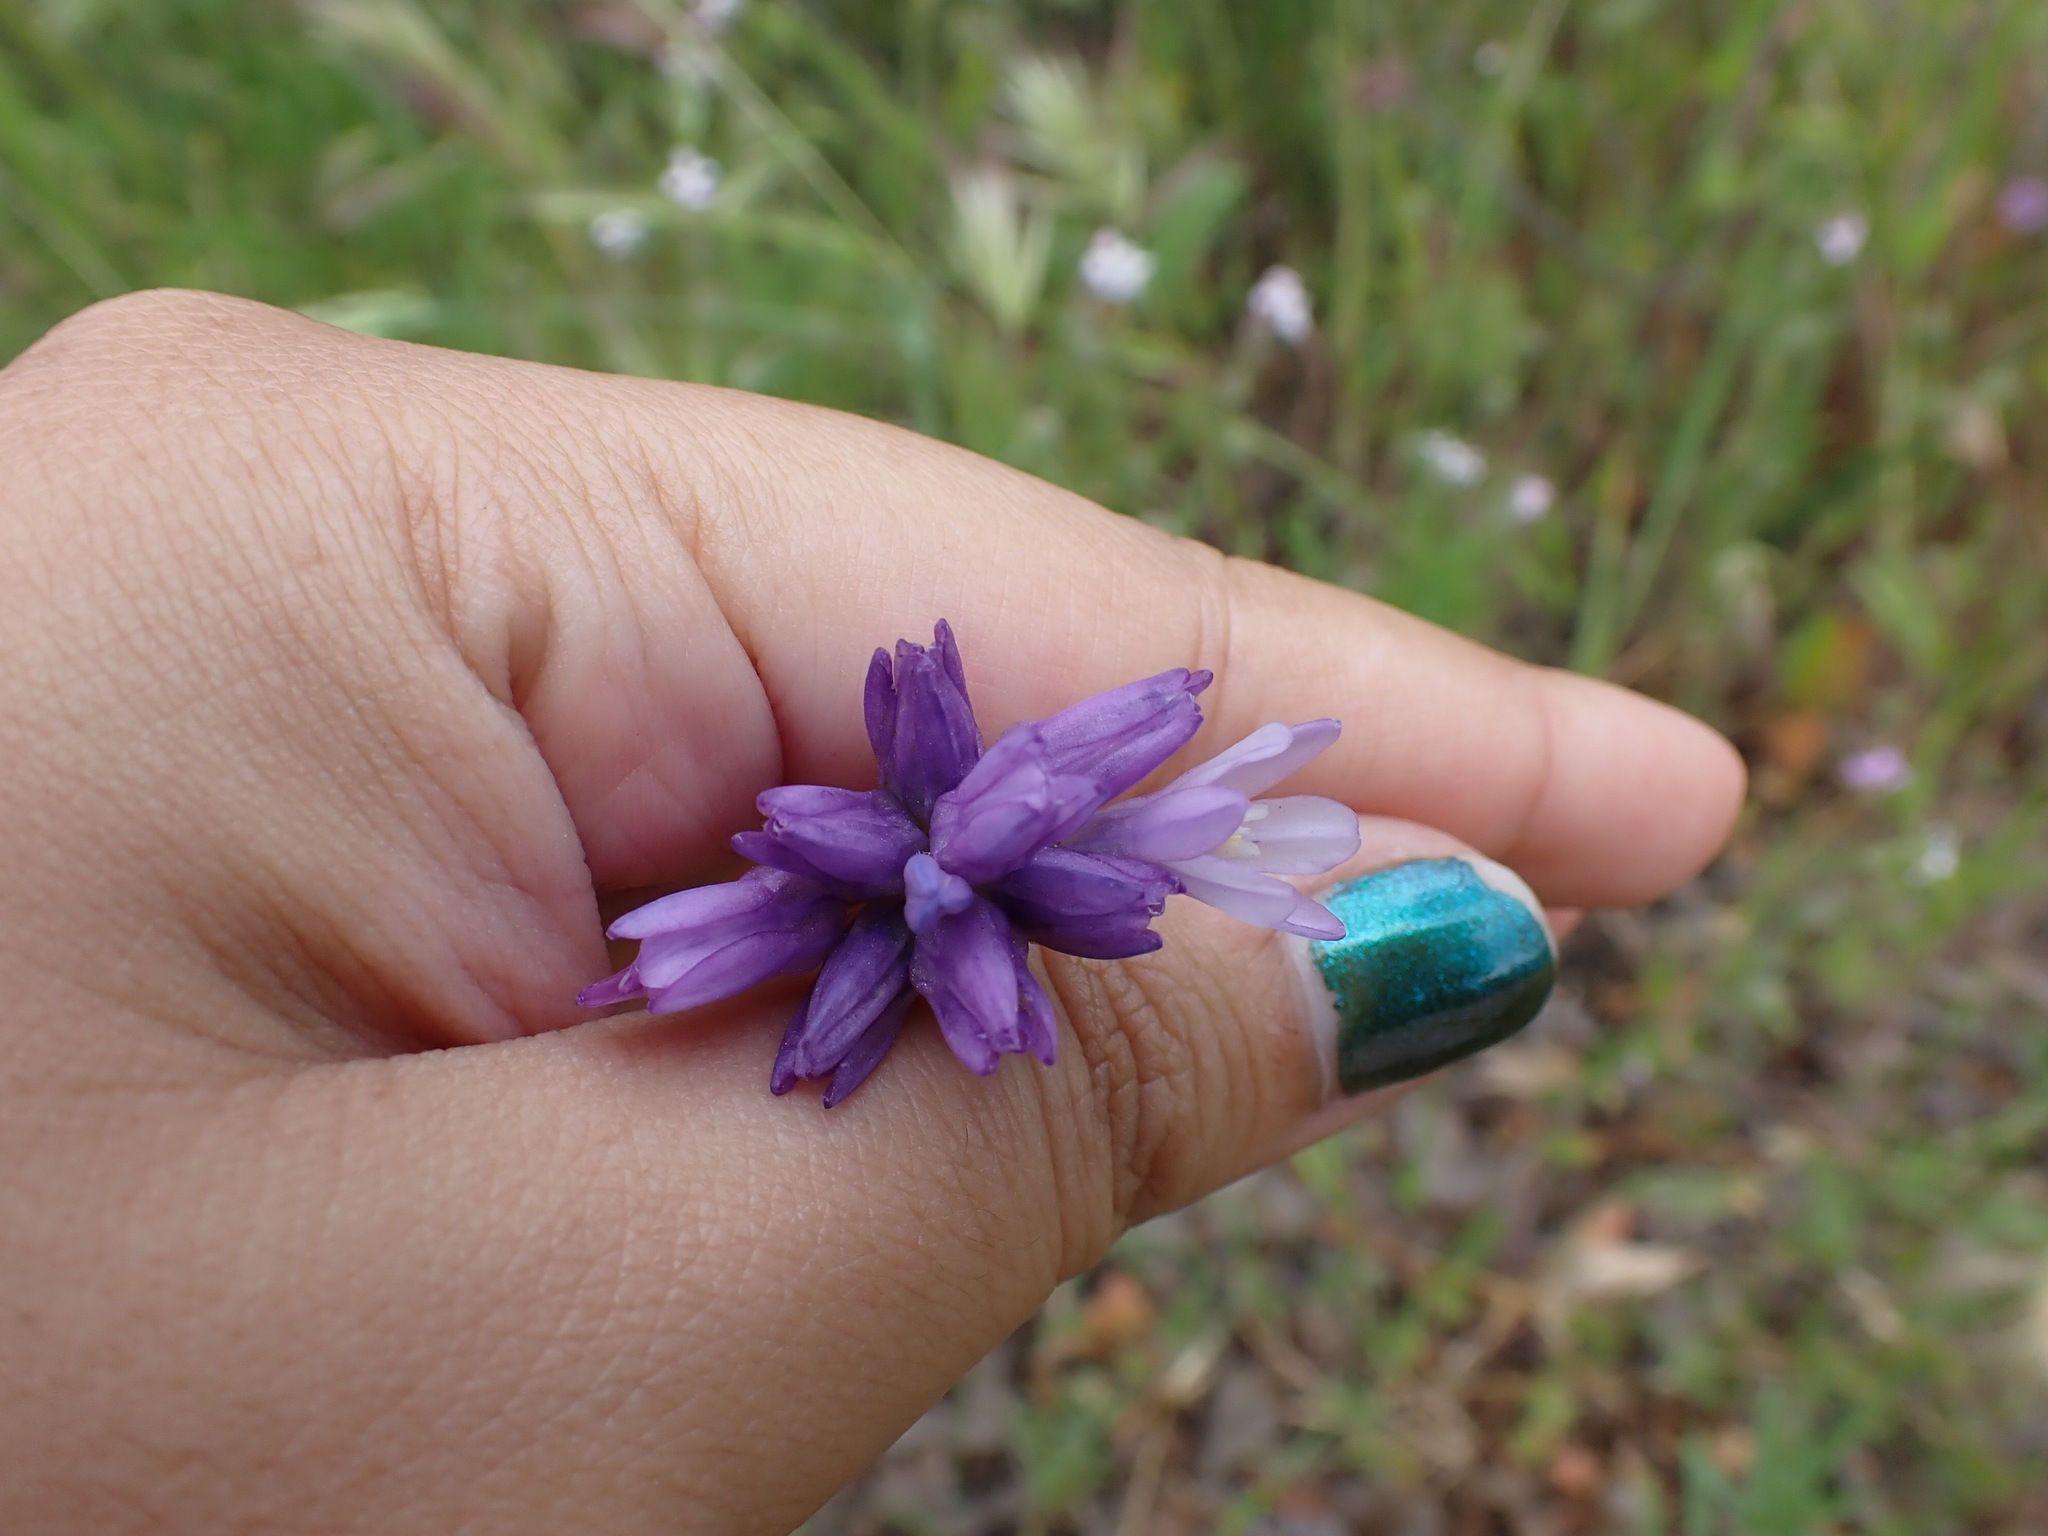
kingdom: Plantae
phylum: Tracheophyta
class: Liliopsida
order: Asparagales
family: Asparagaceae
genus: Dipterostemon
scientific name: Dipterostemon capitatus
